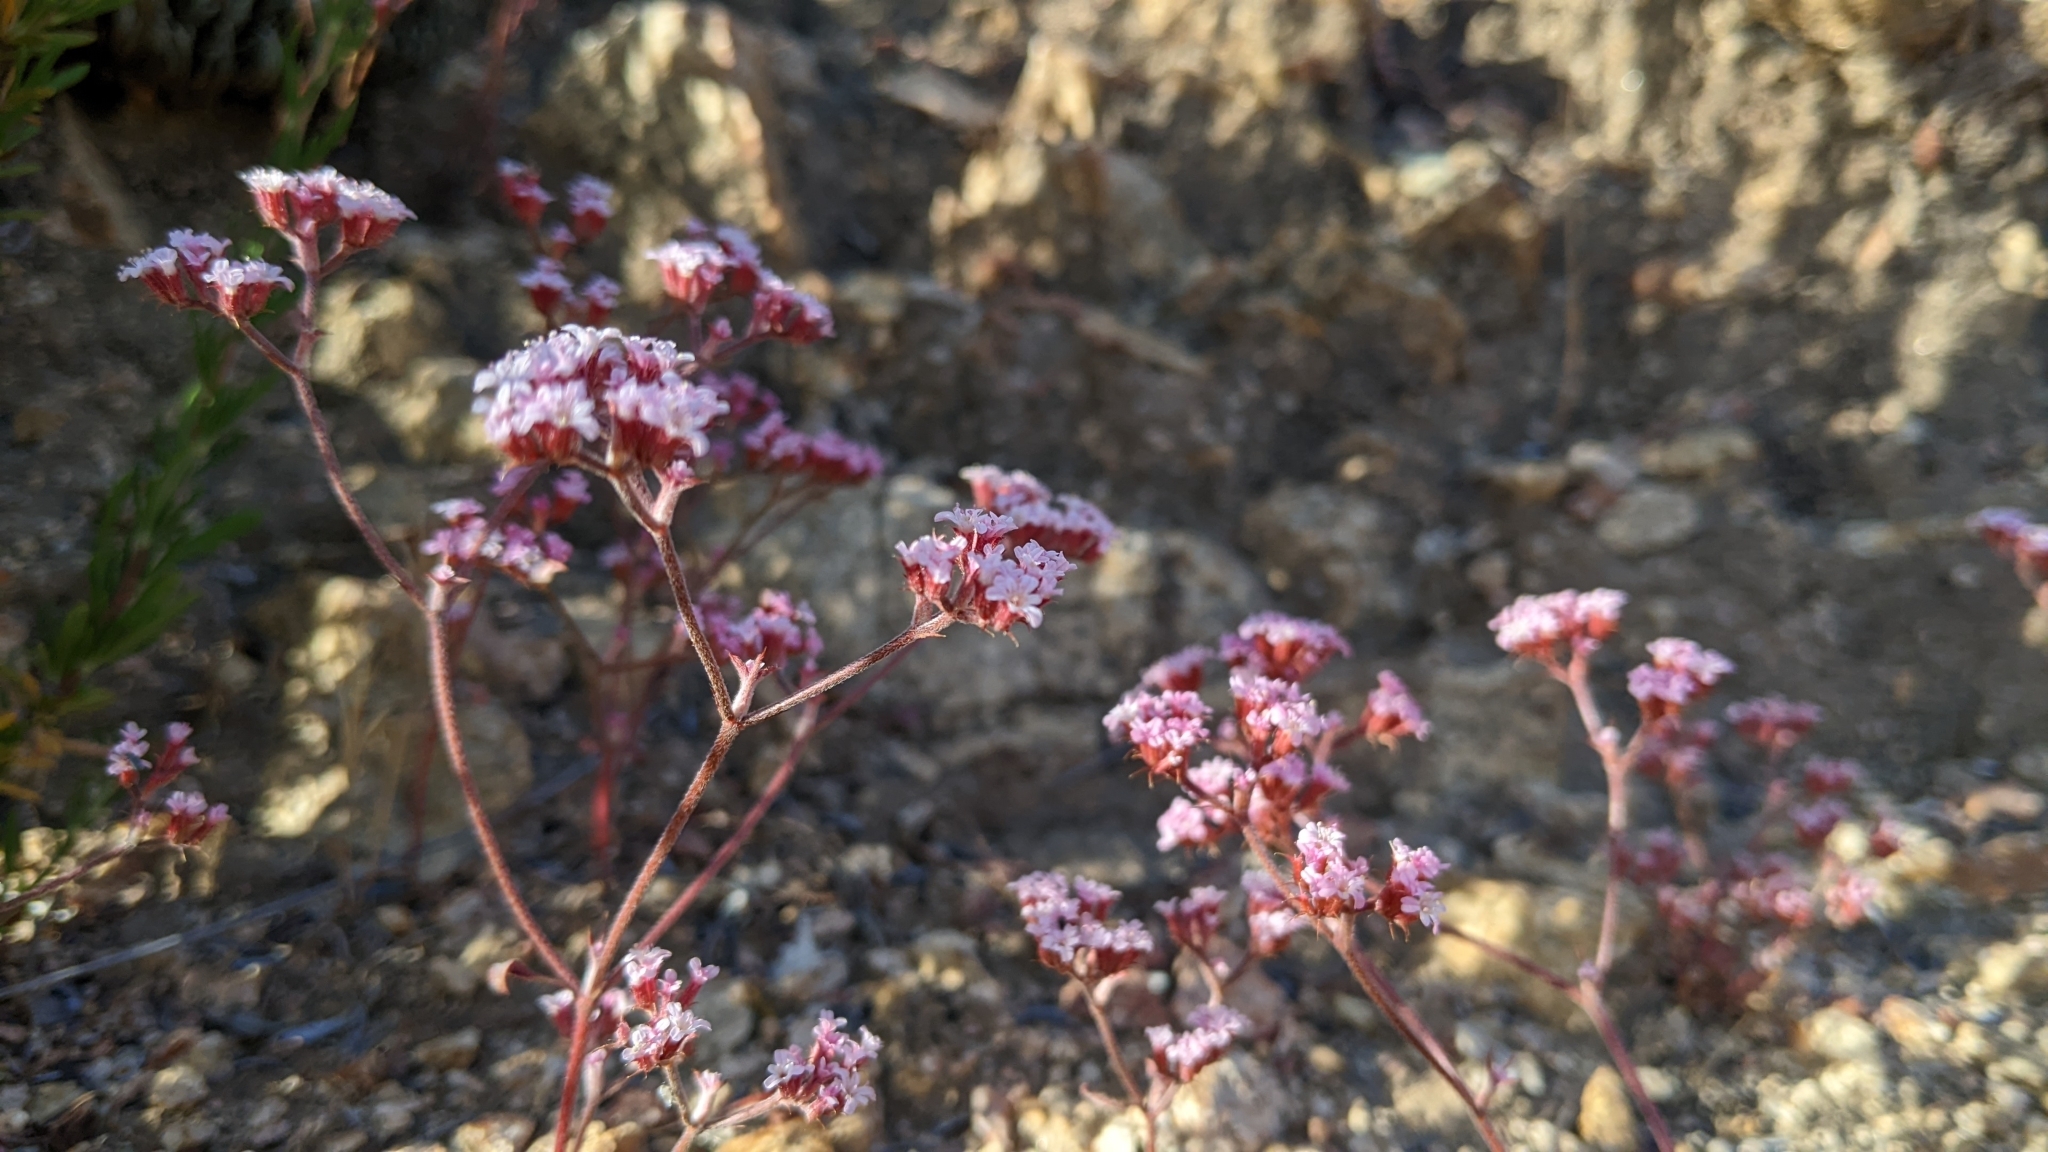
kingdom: Plantae
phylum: Tracheophyta
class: Magnoliopsida
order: Caryophyllales
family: Polygonaceae
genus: Chorizanthe
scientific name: Chorizanthe staticoides
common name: Turkish rugging
